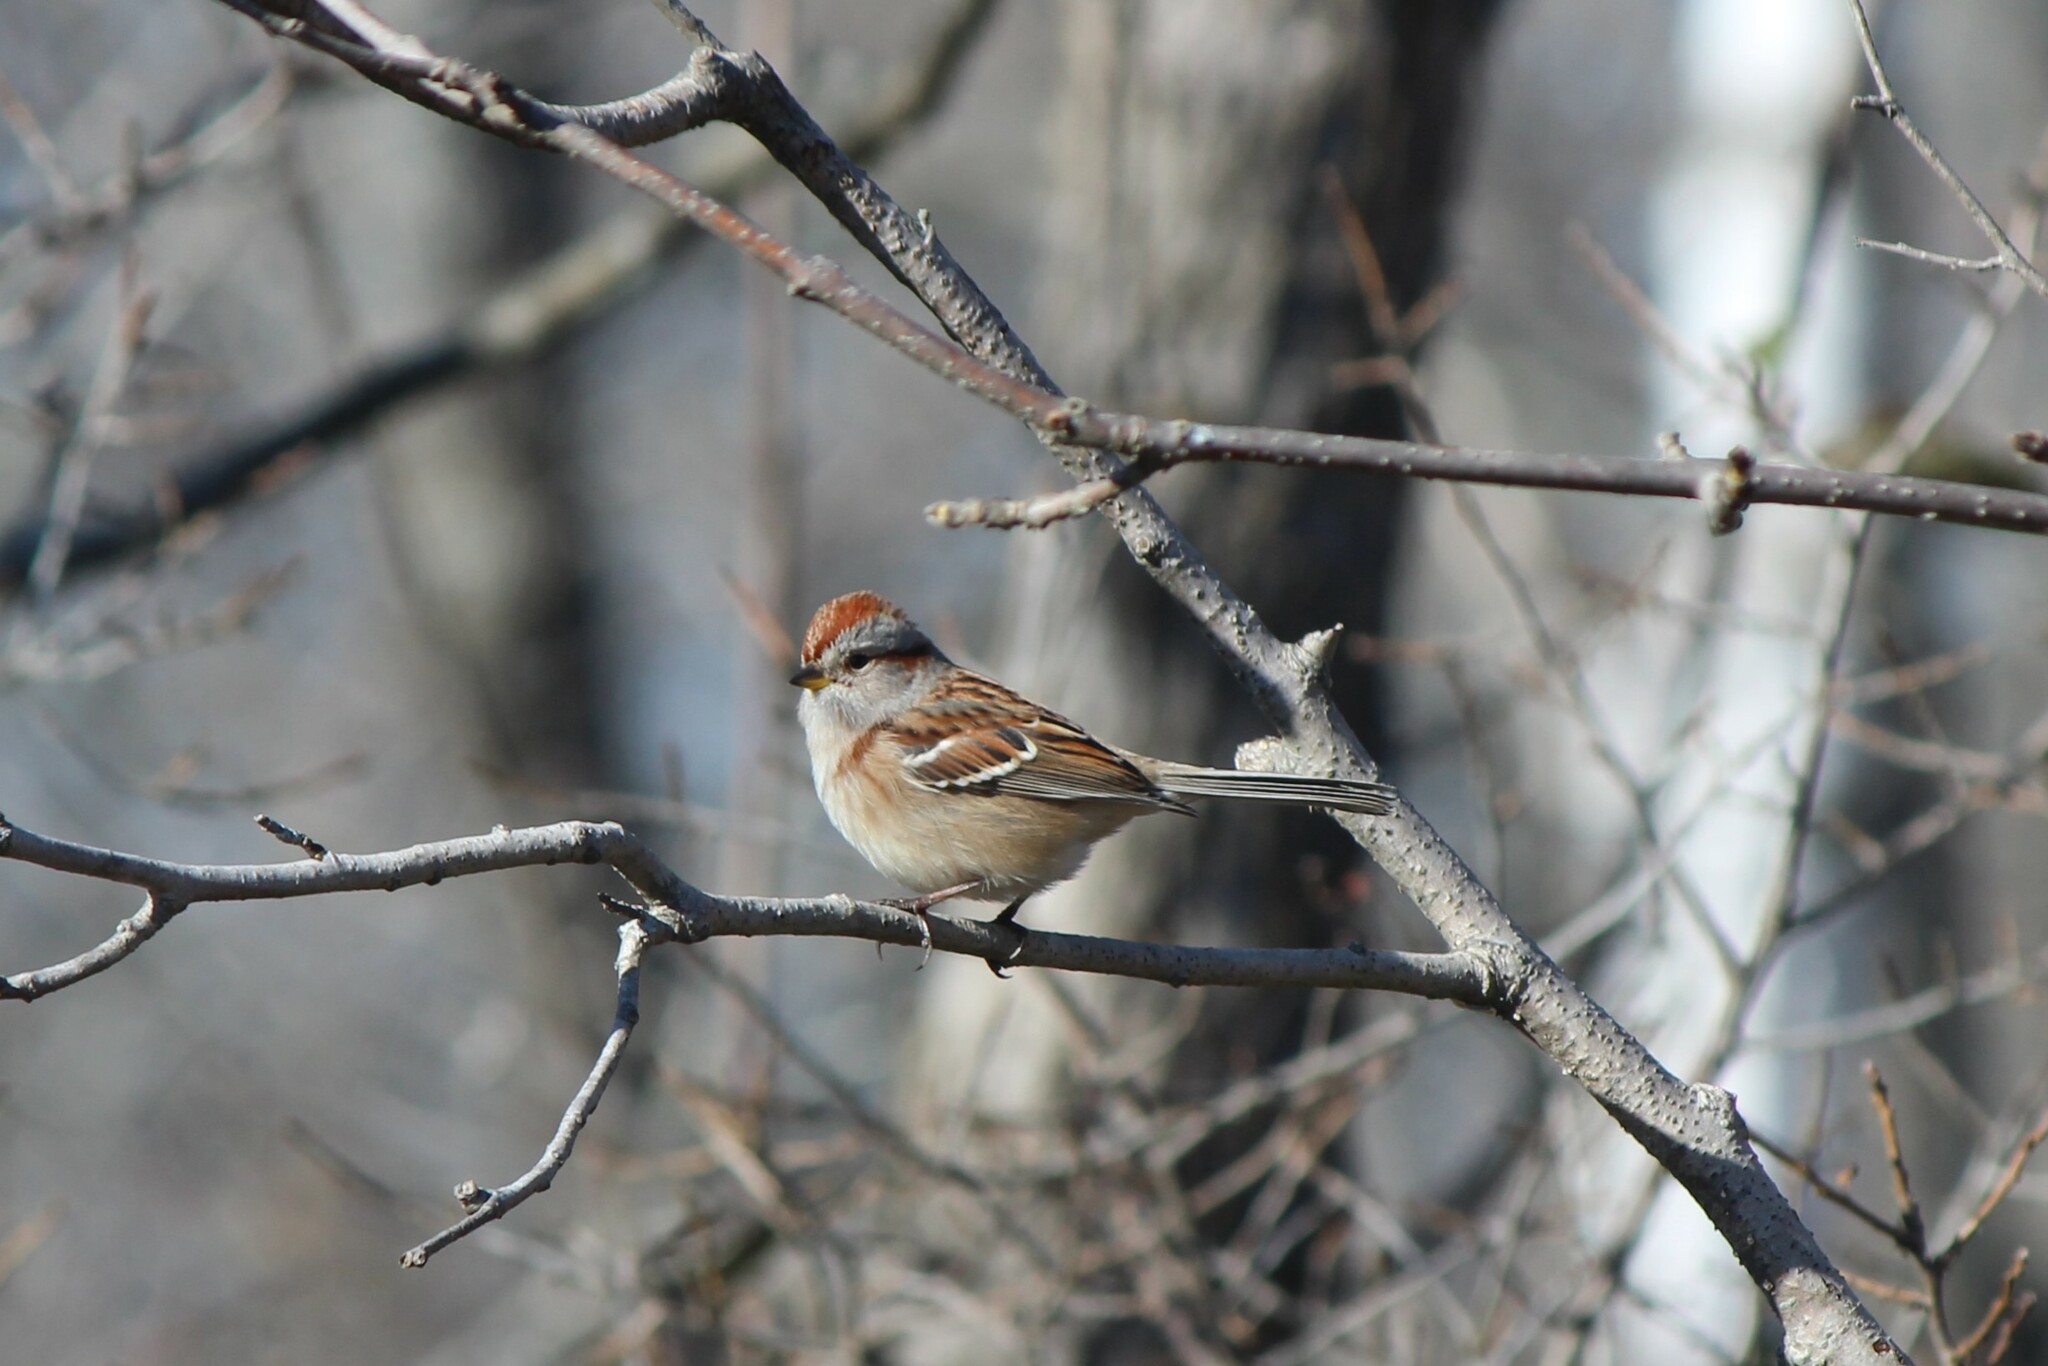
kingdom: Animalia
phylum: Chordata
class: Aves
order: Passeriformes
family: Passerellidae
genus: Spizelloides
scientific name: Spizelloides arborea
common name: American tree sparrow
